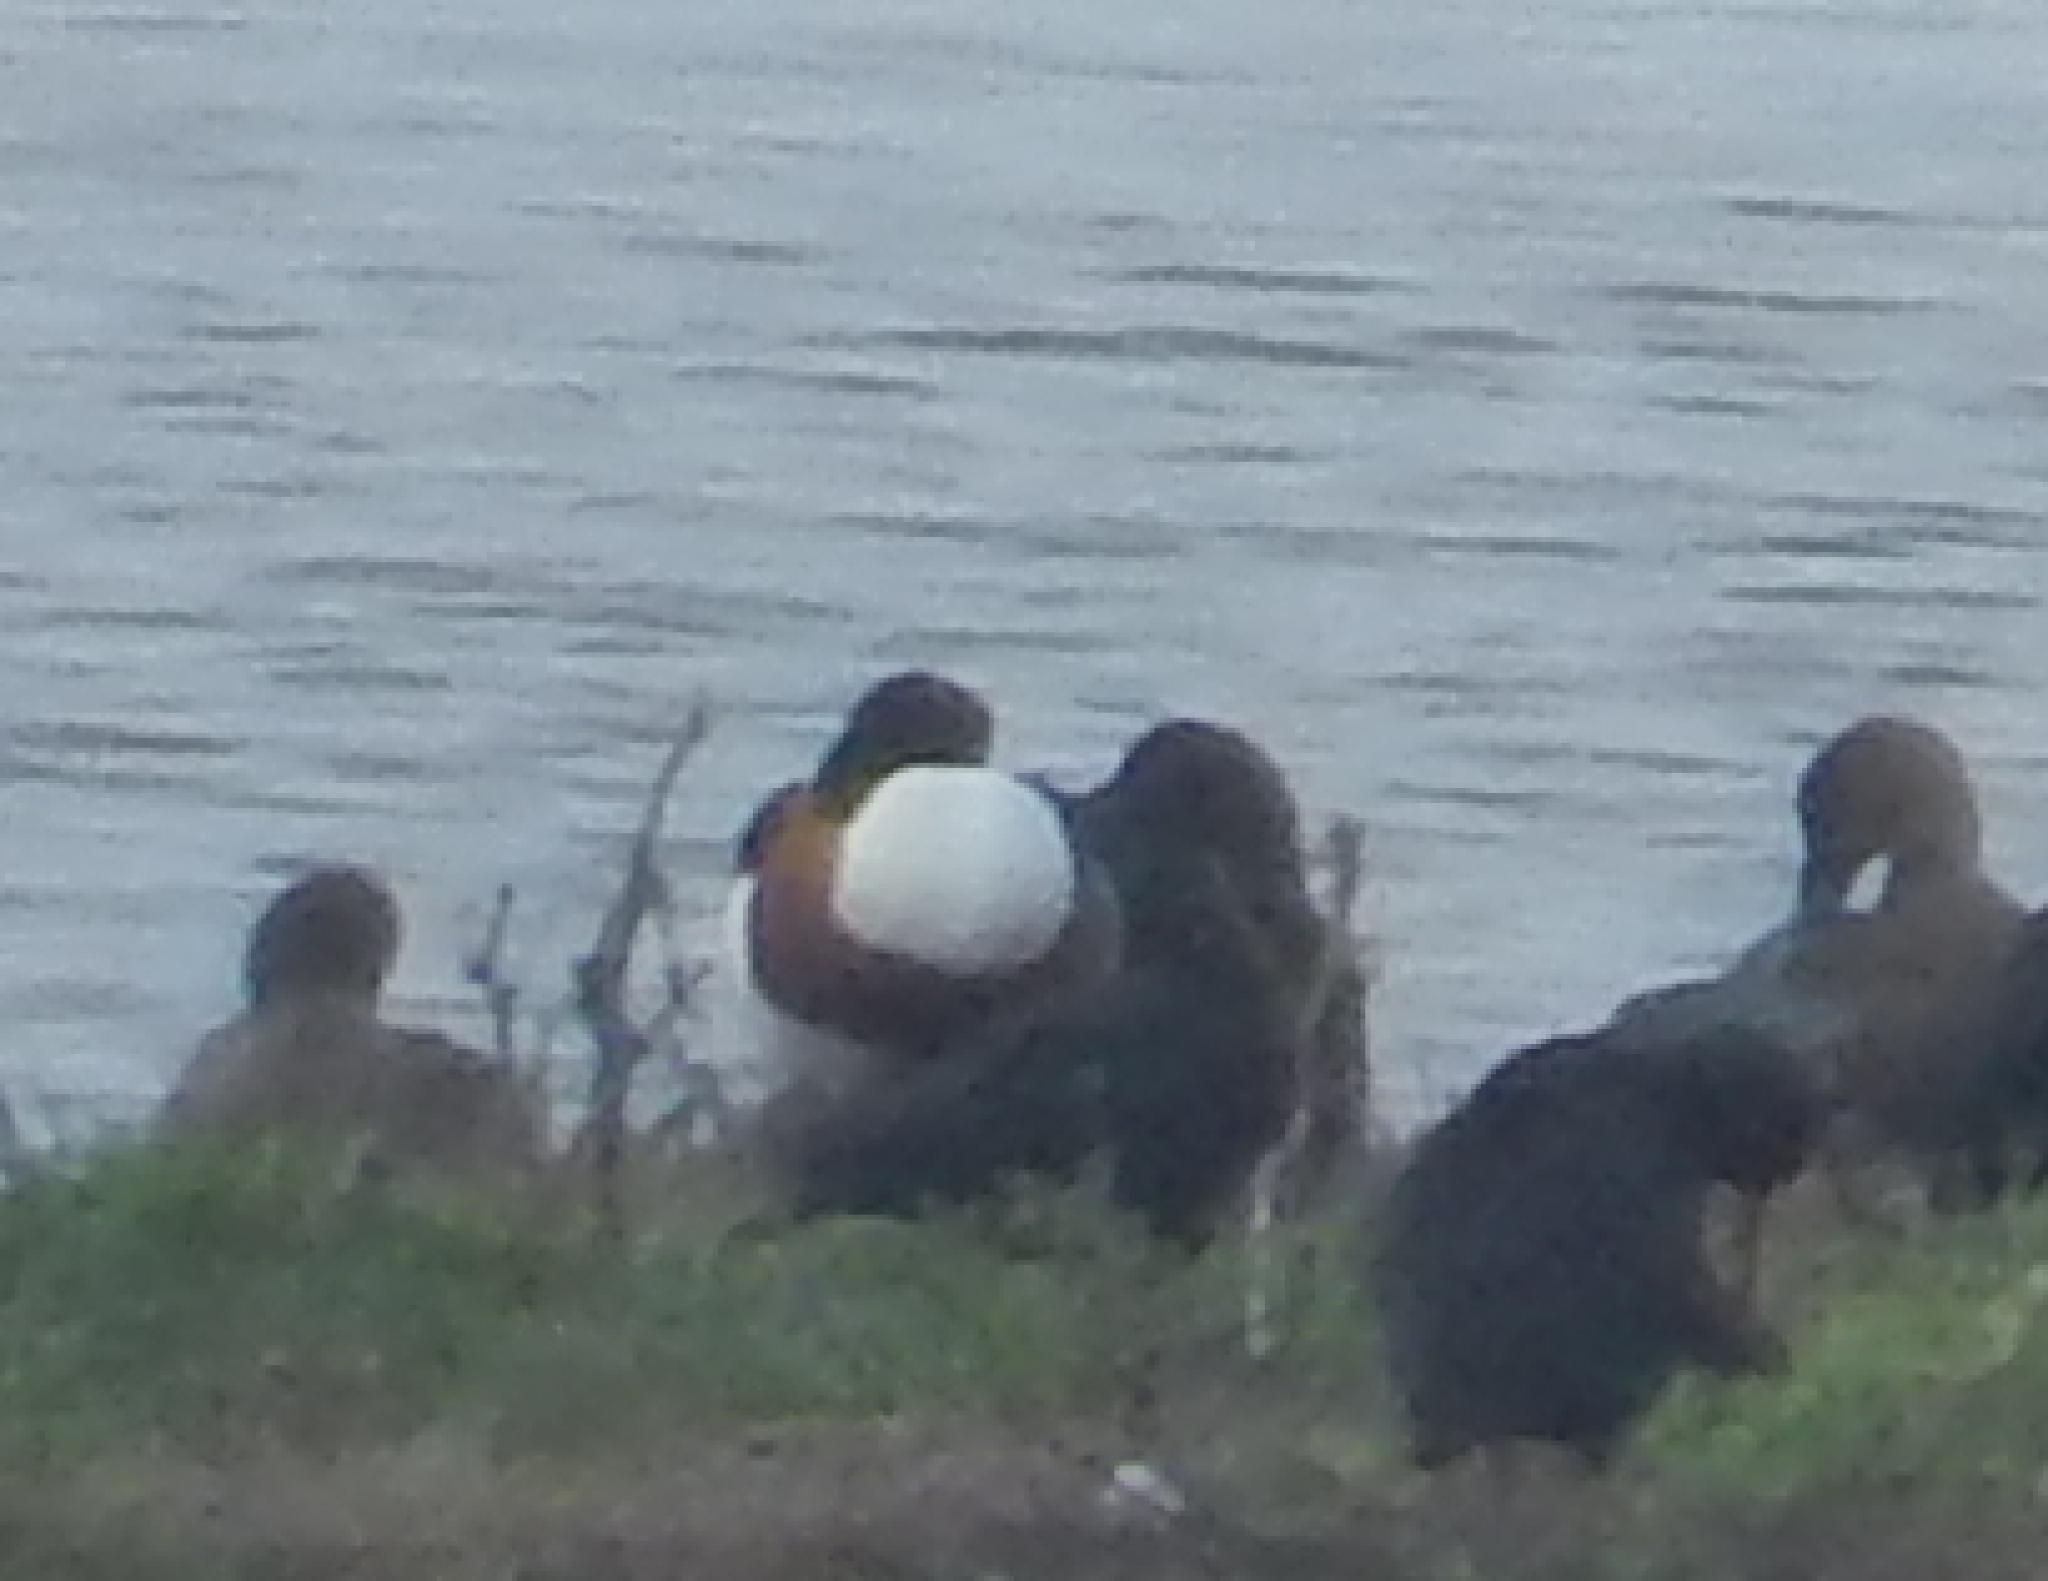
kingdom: Animalia
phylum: Chordata
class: Aves
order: Anseriformes
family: Anatidae
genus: Tadorna
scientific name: Tadorna tadorna
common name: Common shelduck
